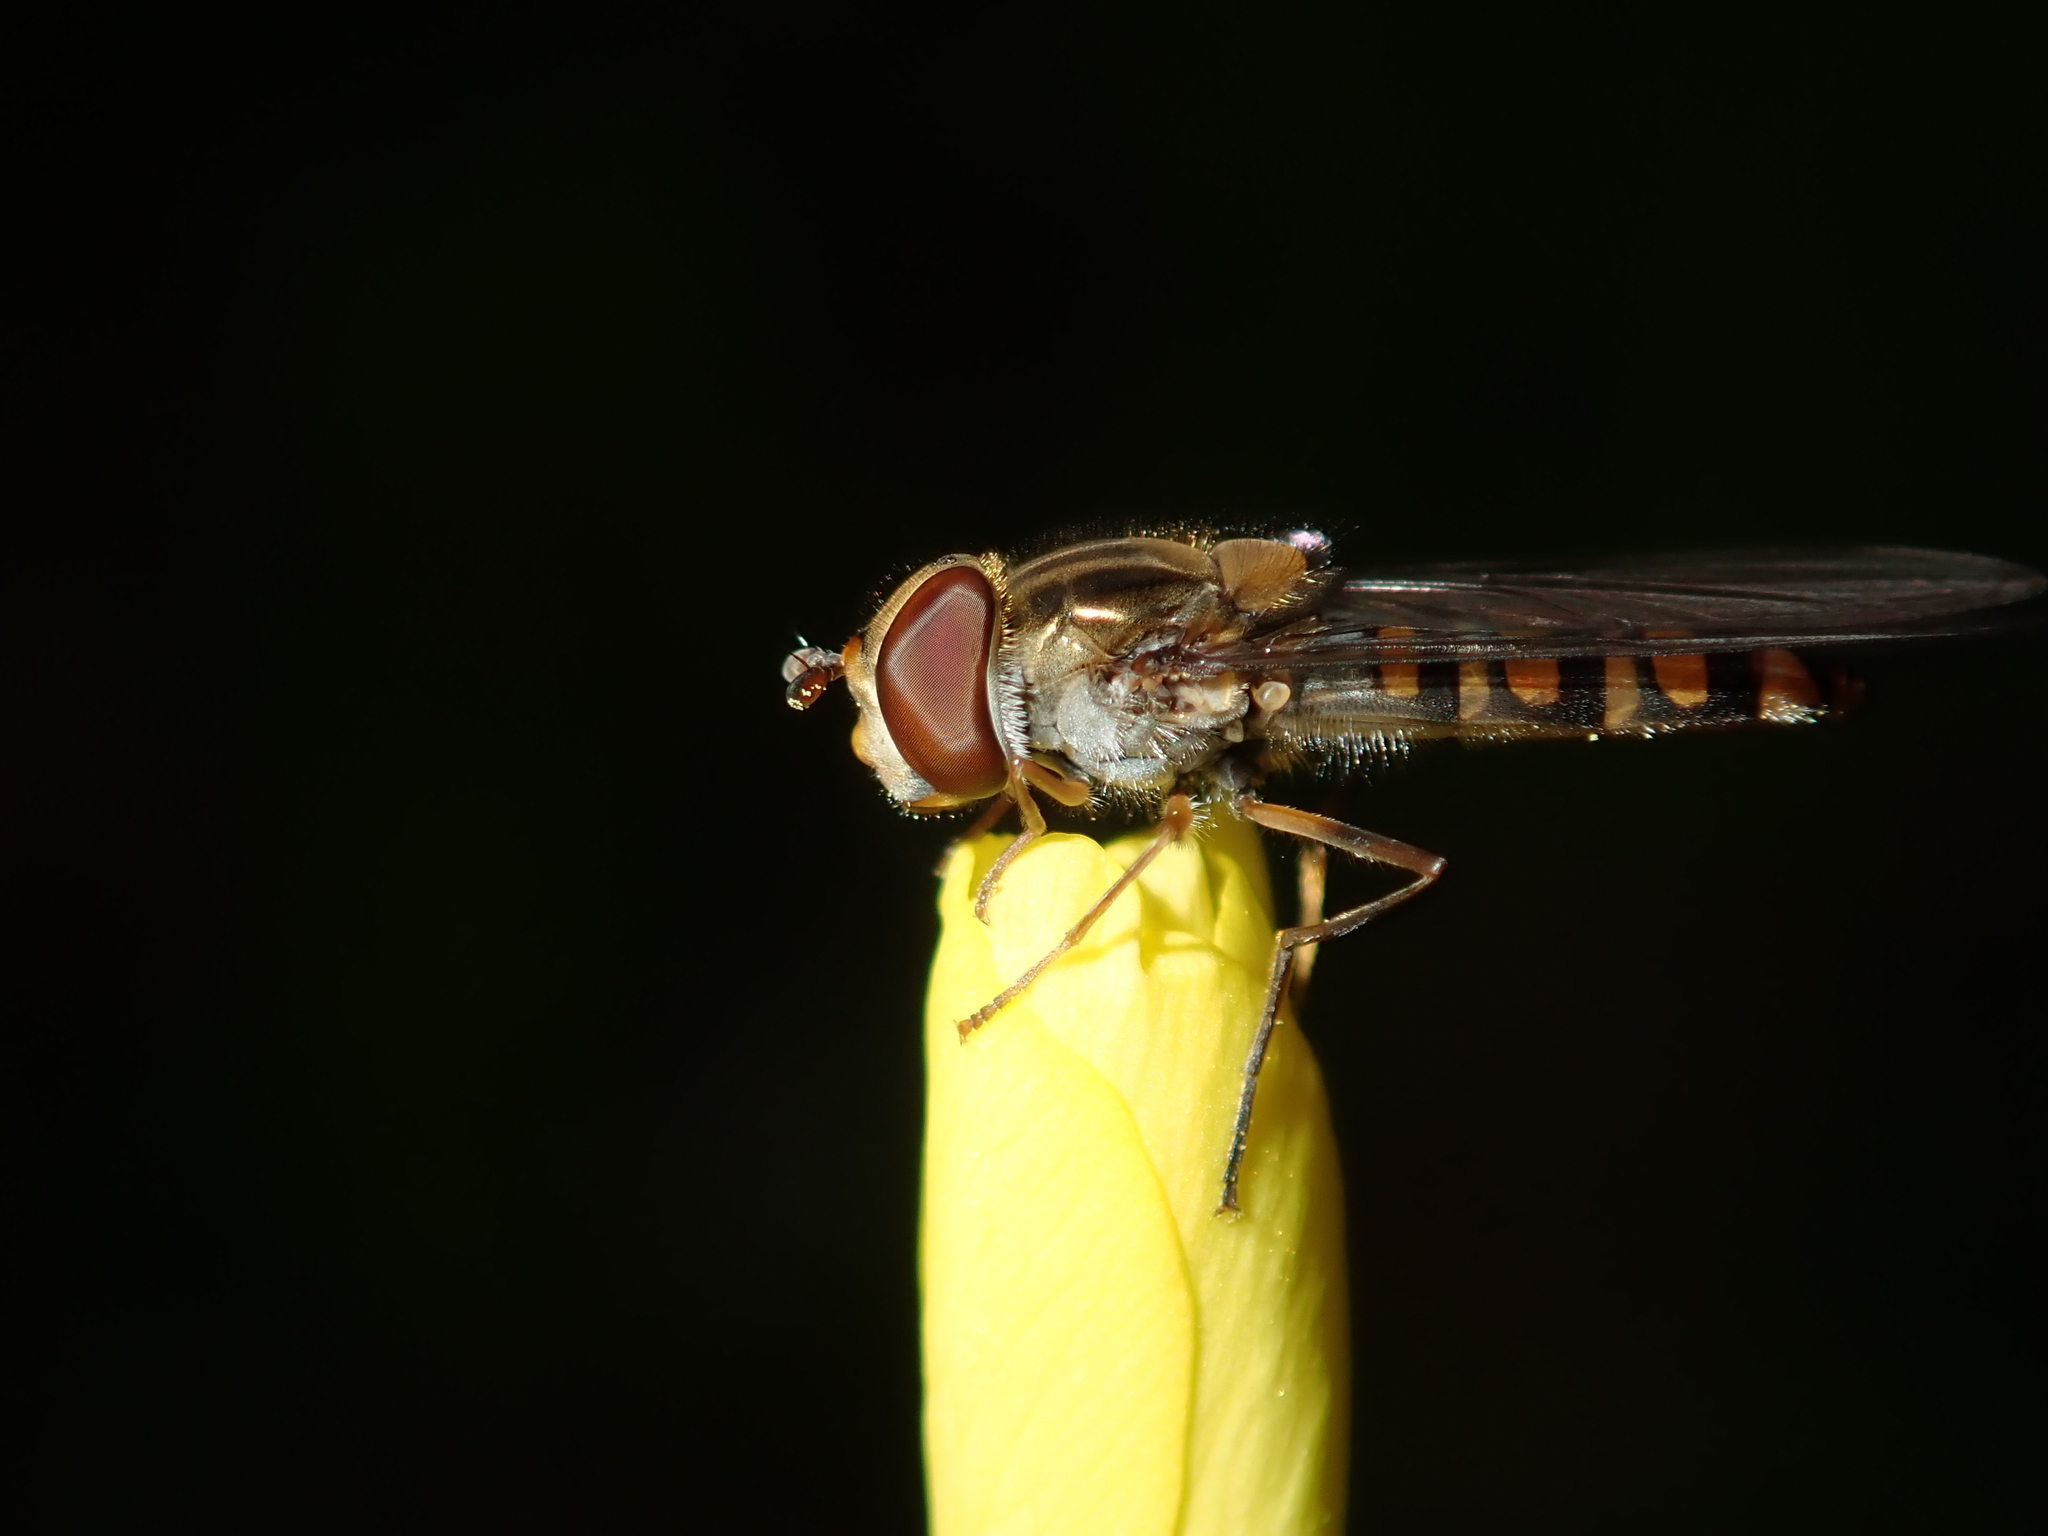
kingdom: Animalia
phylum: Arthropoda
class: Insecta
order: Diptera
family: Syrphidae
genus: Episyrphus
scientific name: Episyrphus balteatus
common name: Marmalade hoverfly
